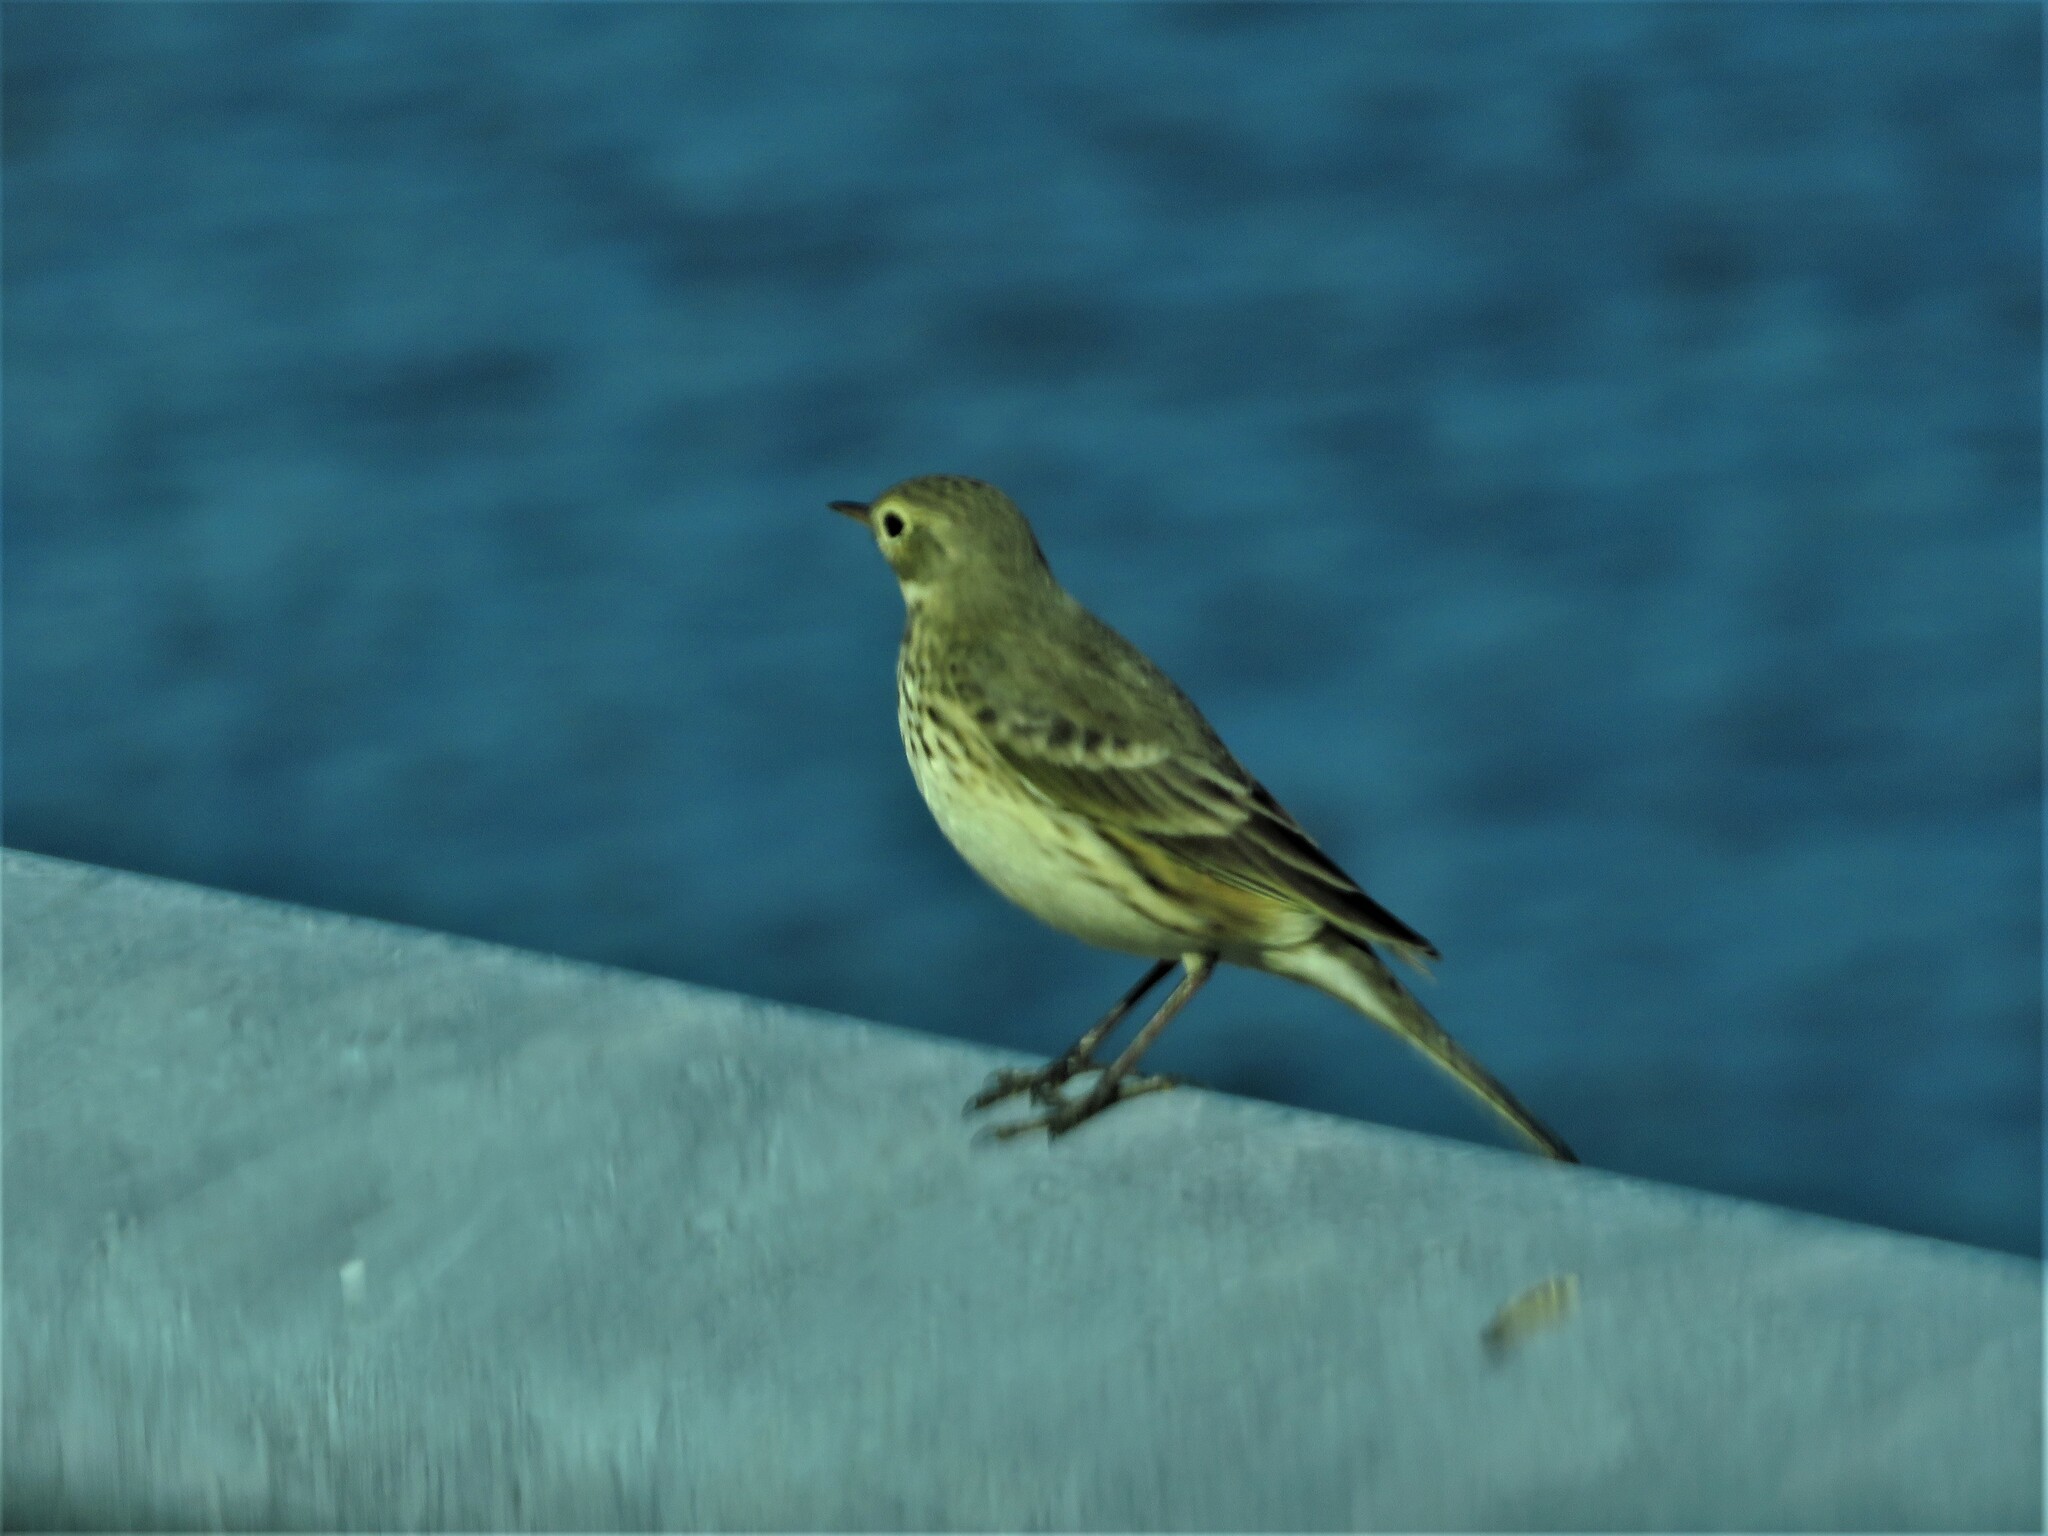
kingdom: Animalia
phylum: Chordata
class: Aves
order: Passeriformes
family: Motacillidae
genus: Anthus
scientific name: Anthus rubescens
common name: Buff-bellied pipit
